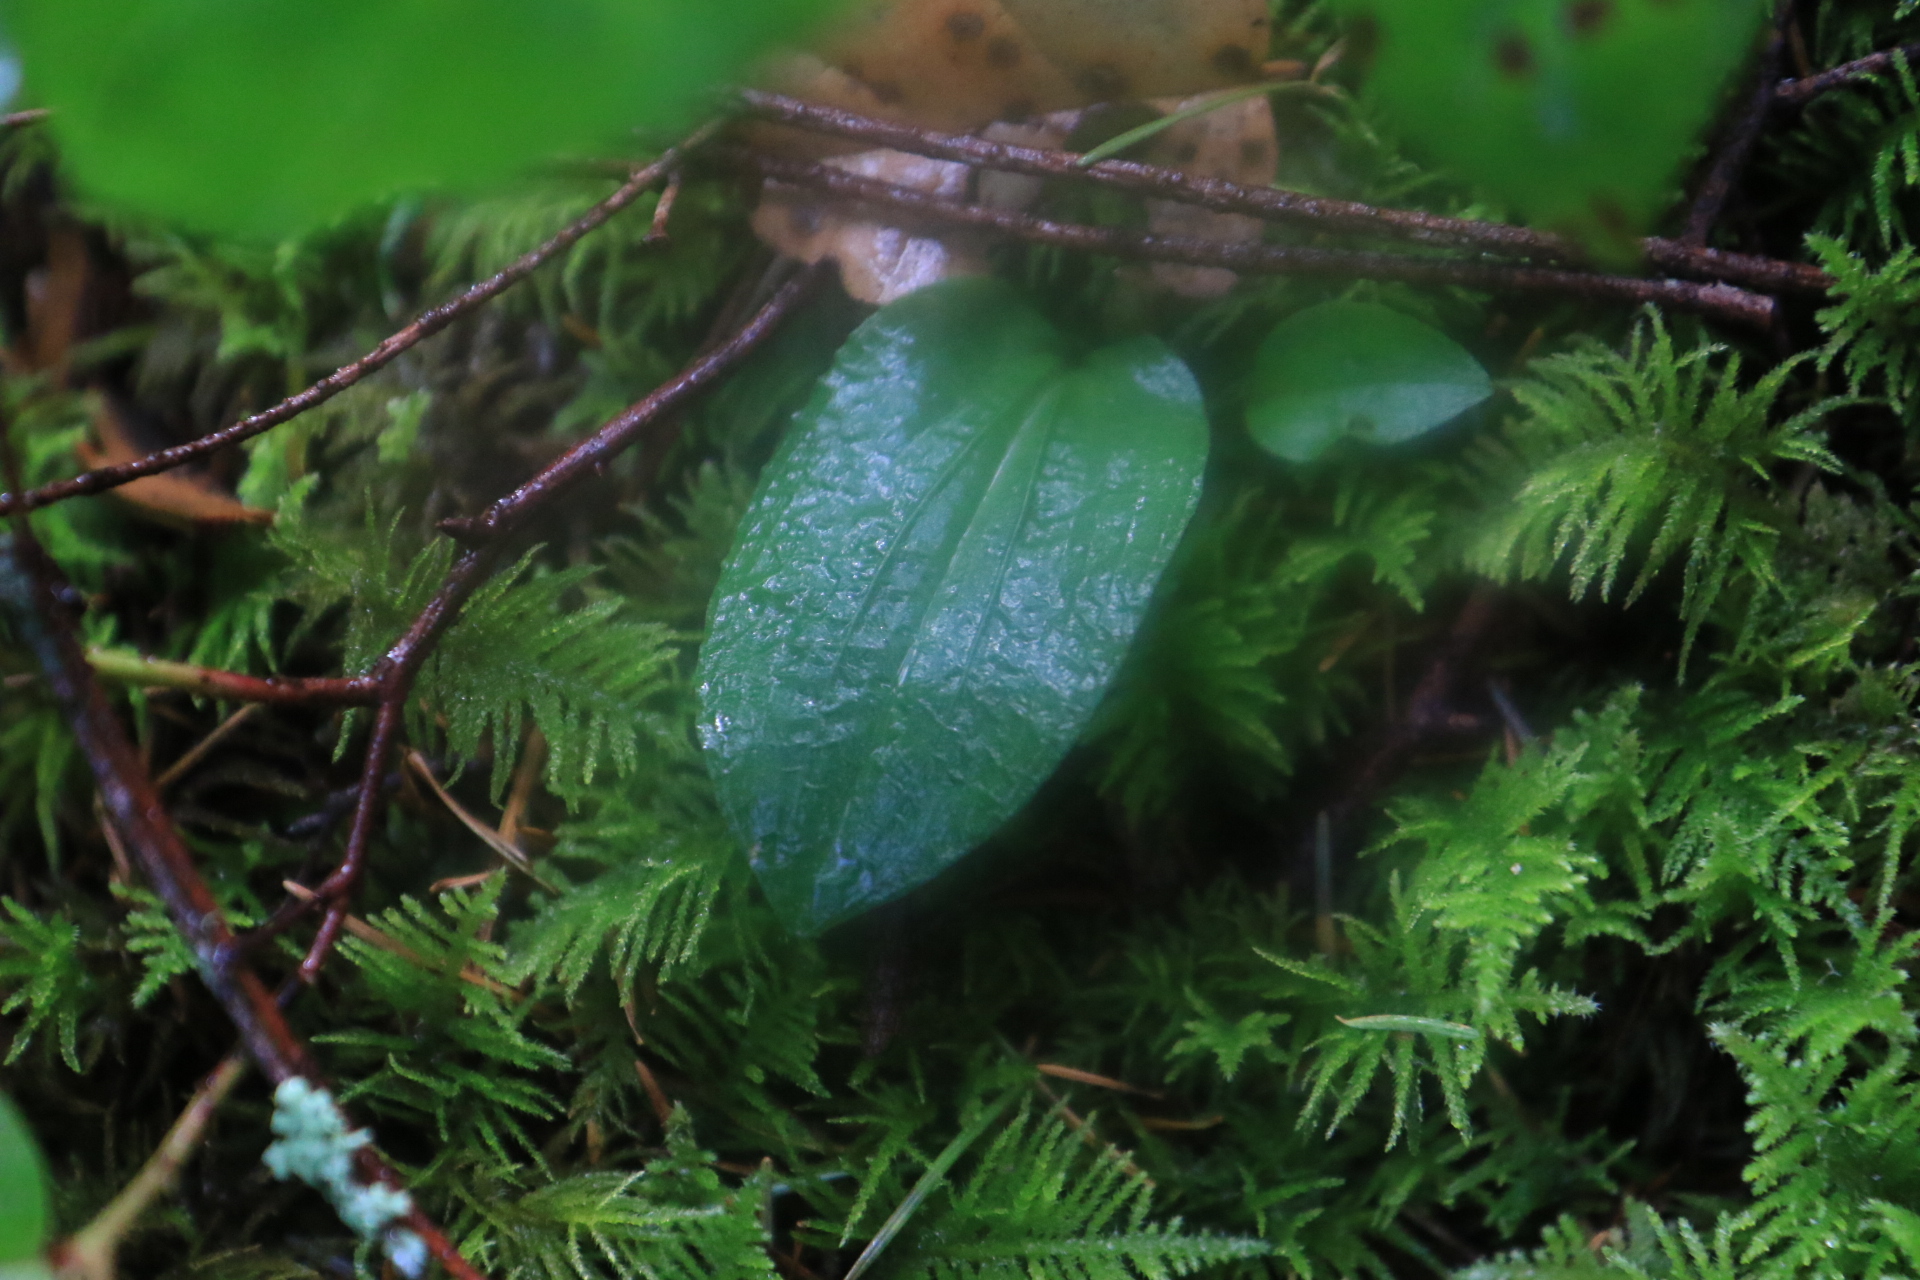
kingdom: Plantae
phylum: Tracheophyta
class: Liliopsida
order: Asparagales
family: Orchidaceae
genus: Calypso
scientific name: Calypso bulbosa
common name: Calypso
